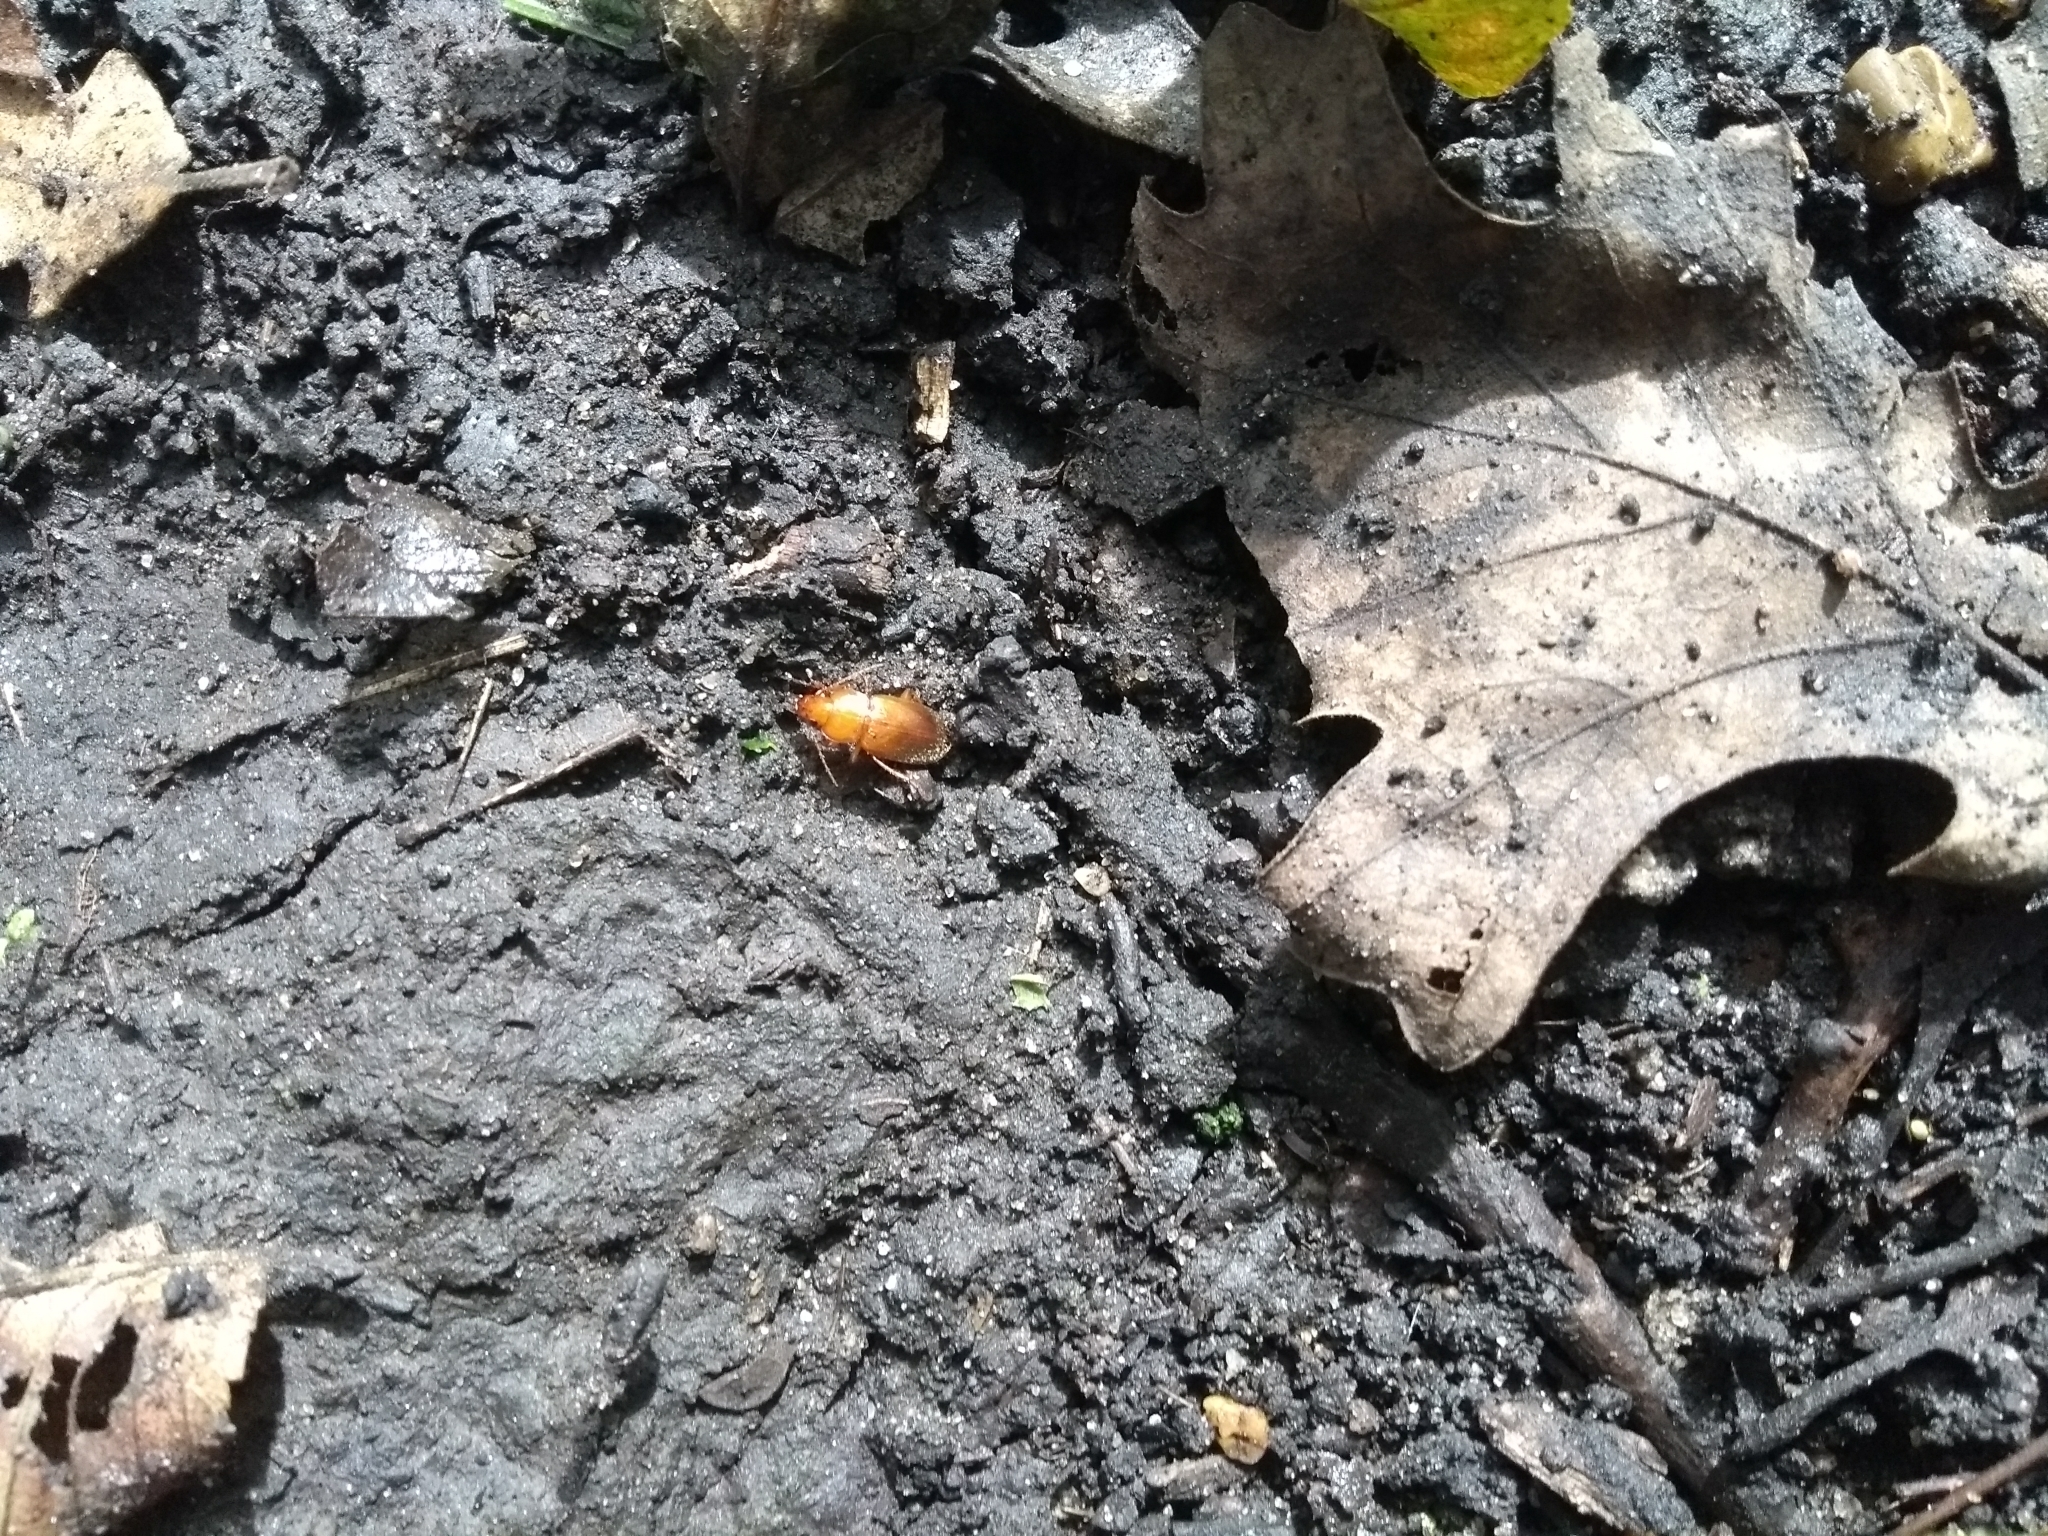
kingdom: Animalia
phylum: Arthropoda
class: Insecta
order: Coleoptera
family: Carabidae
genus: Amphasia
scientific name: Amphasia interstitialis
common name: Red-headed ground beetle
